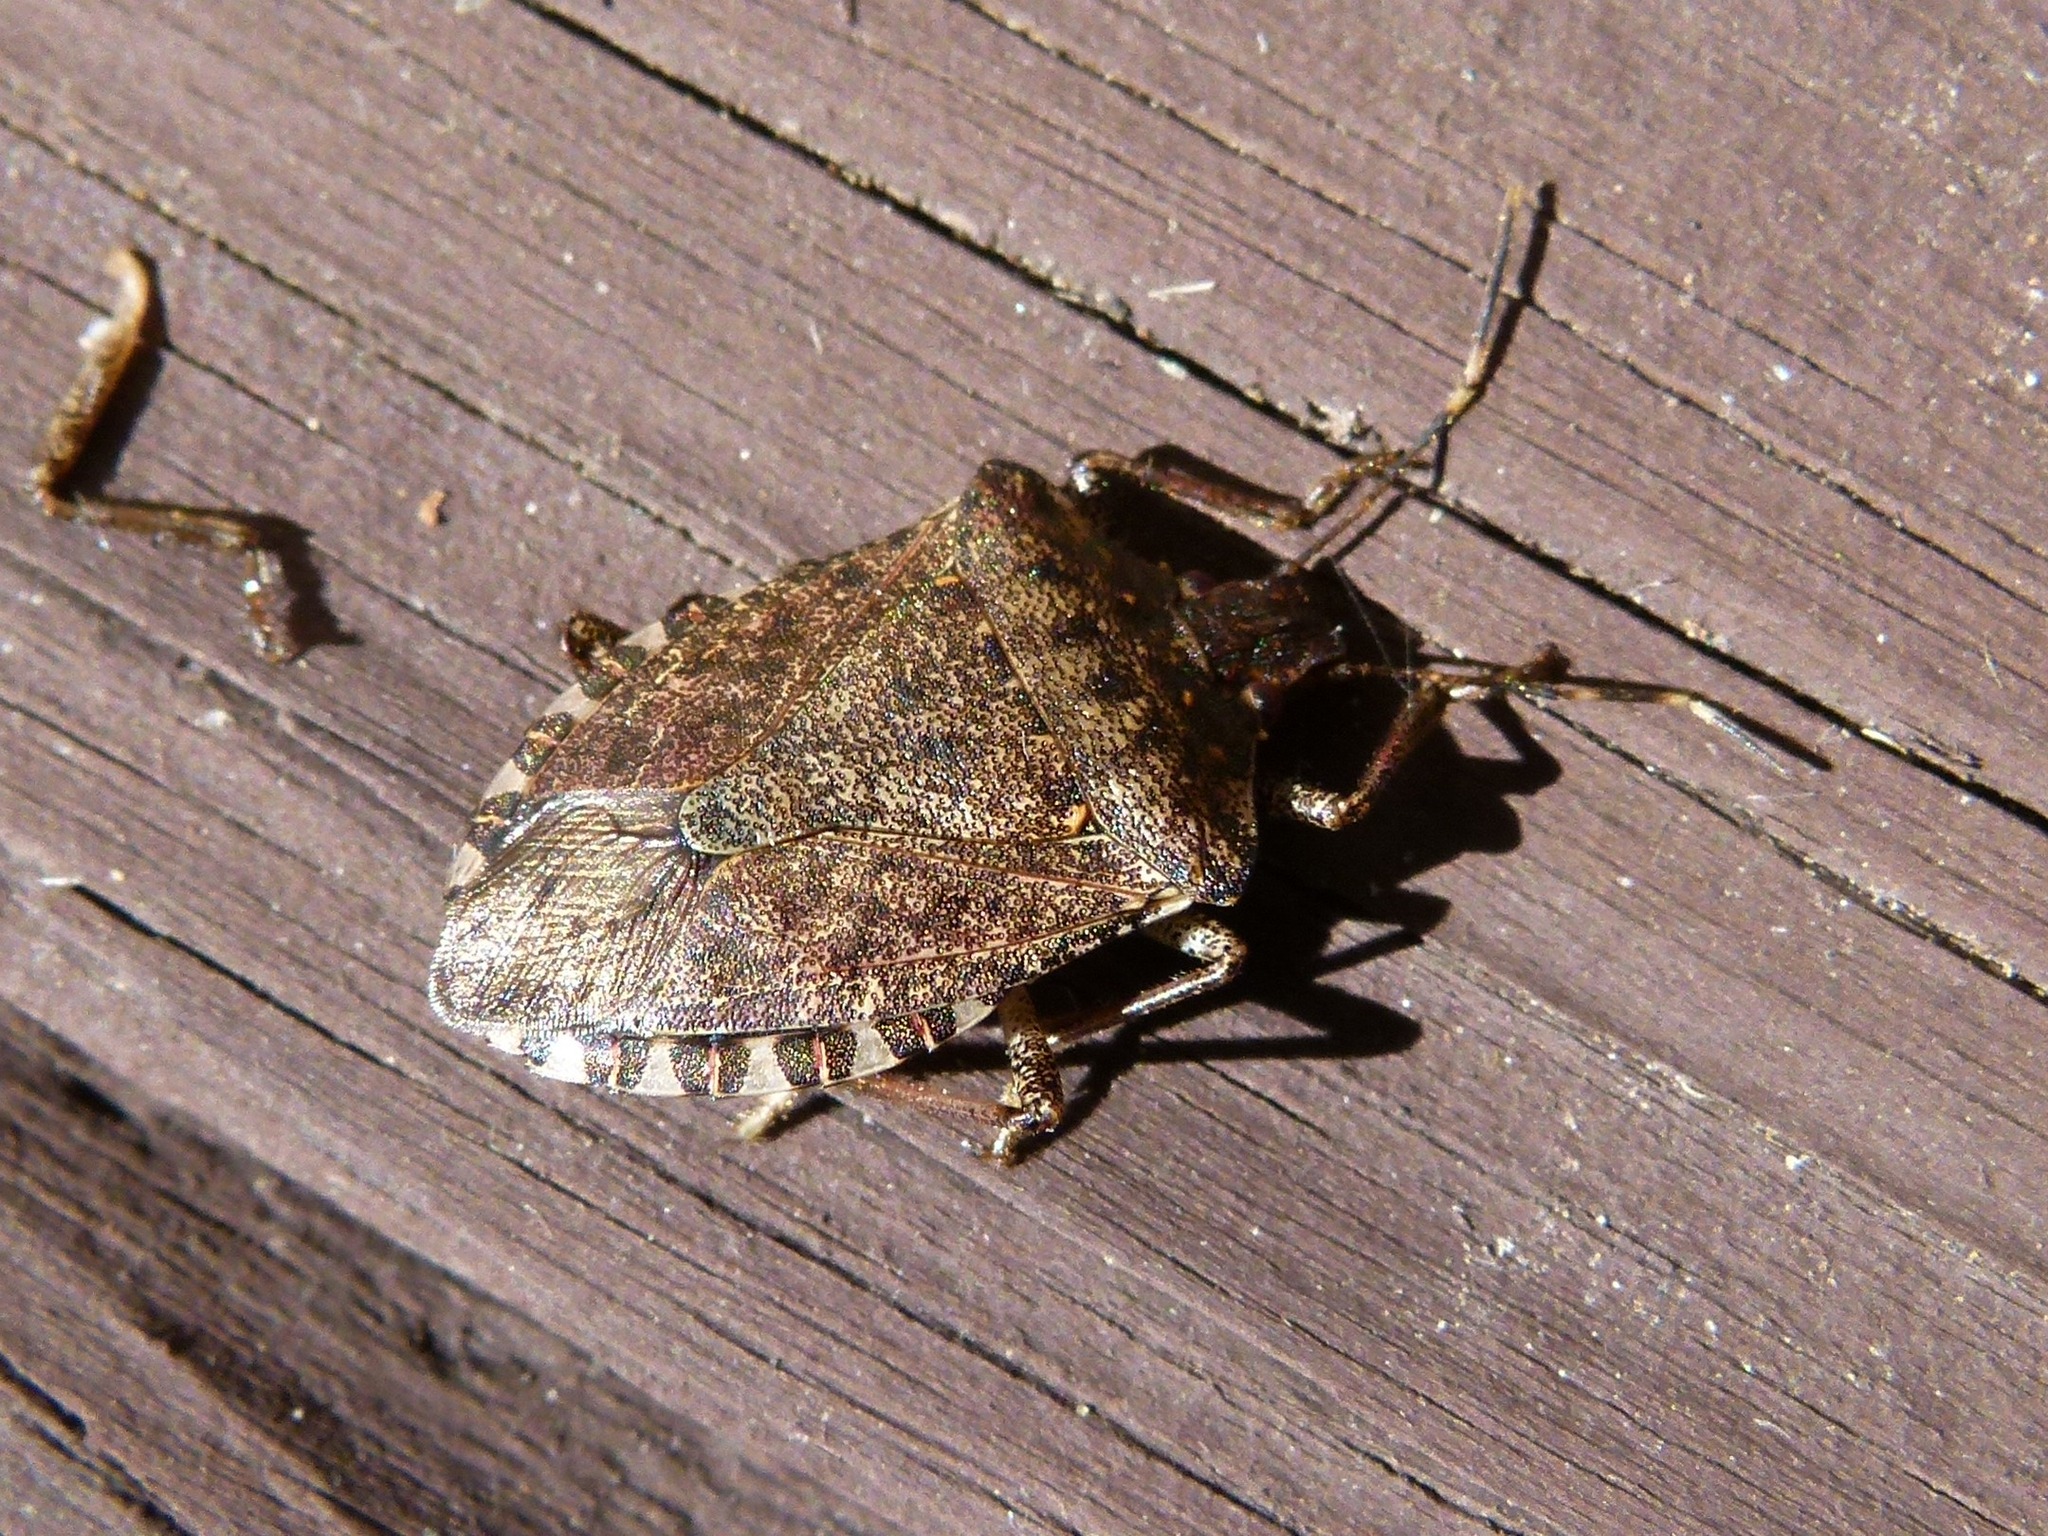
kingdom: Animalia
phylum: Arthropoda
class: Insecta
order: Hemiptera
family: Pentatomidae
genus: Halyomorpha
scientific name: Halyomorpha halys
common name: Brown marmorated stink bug
